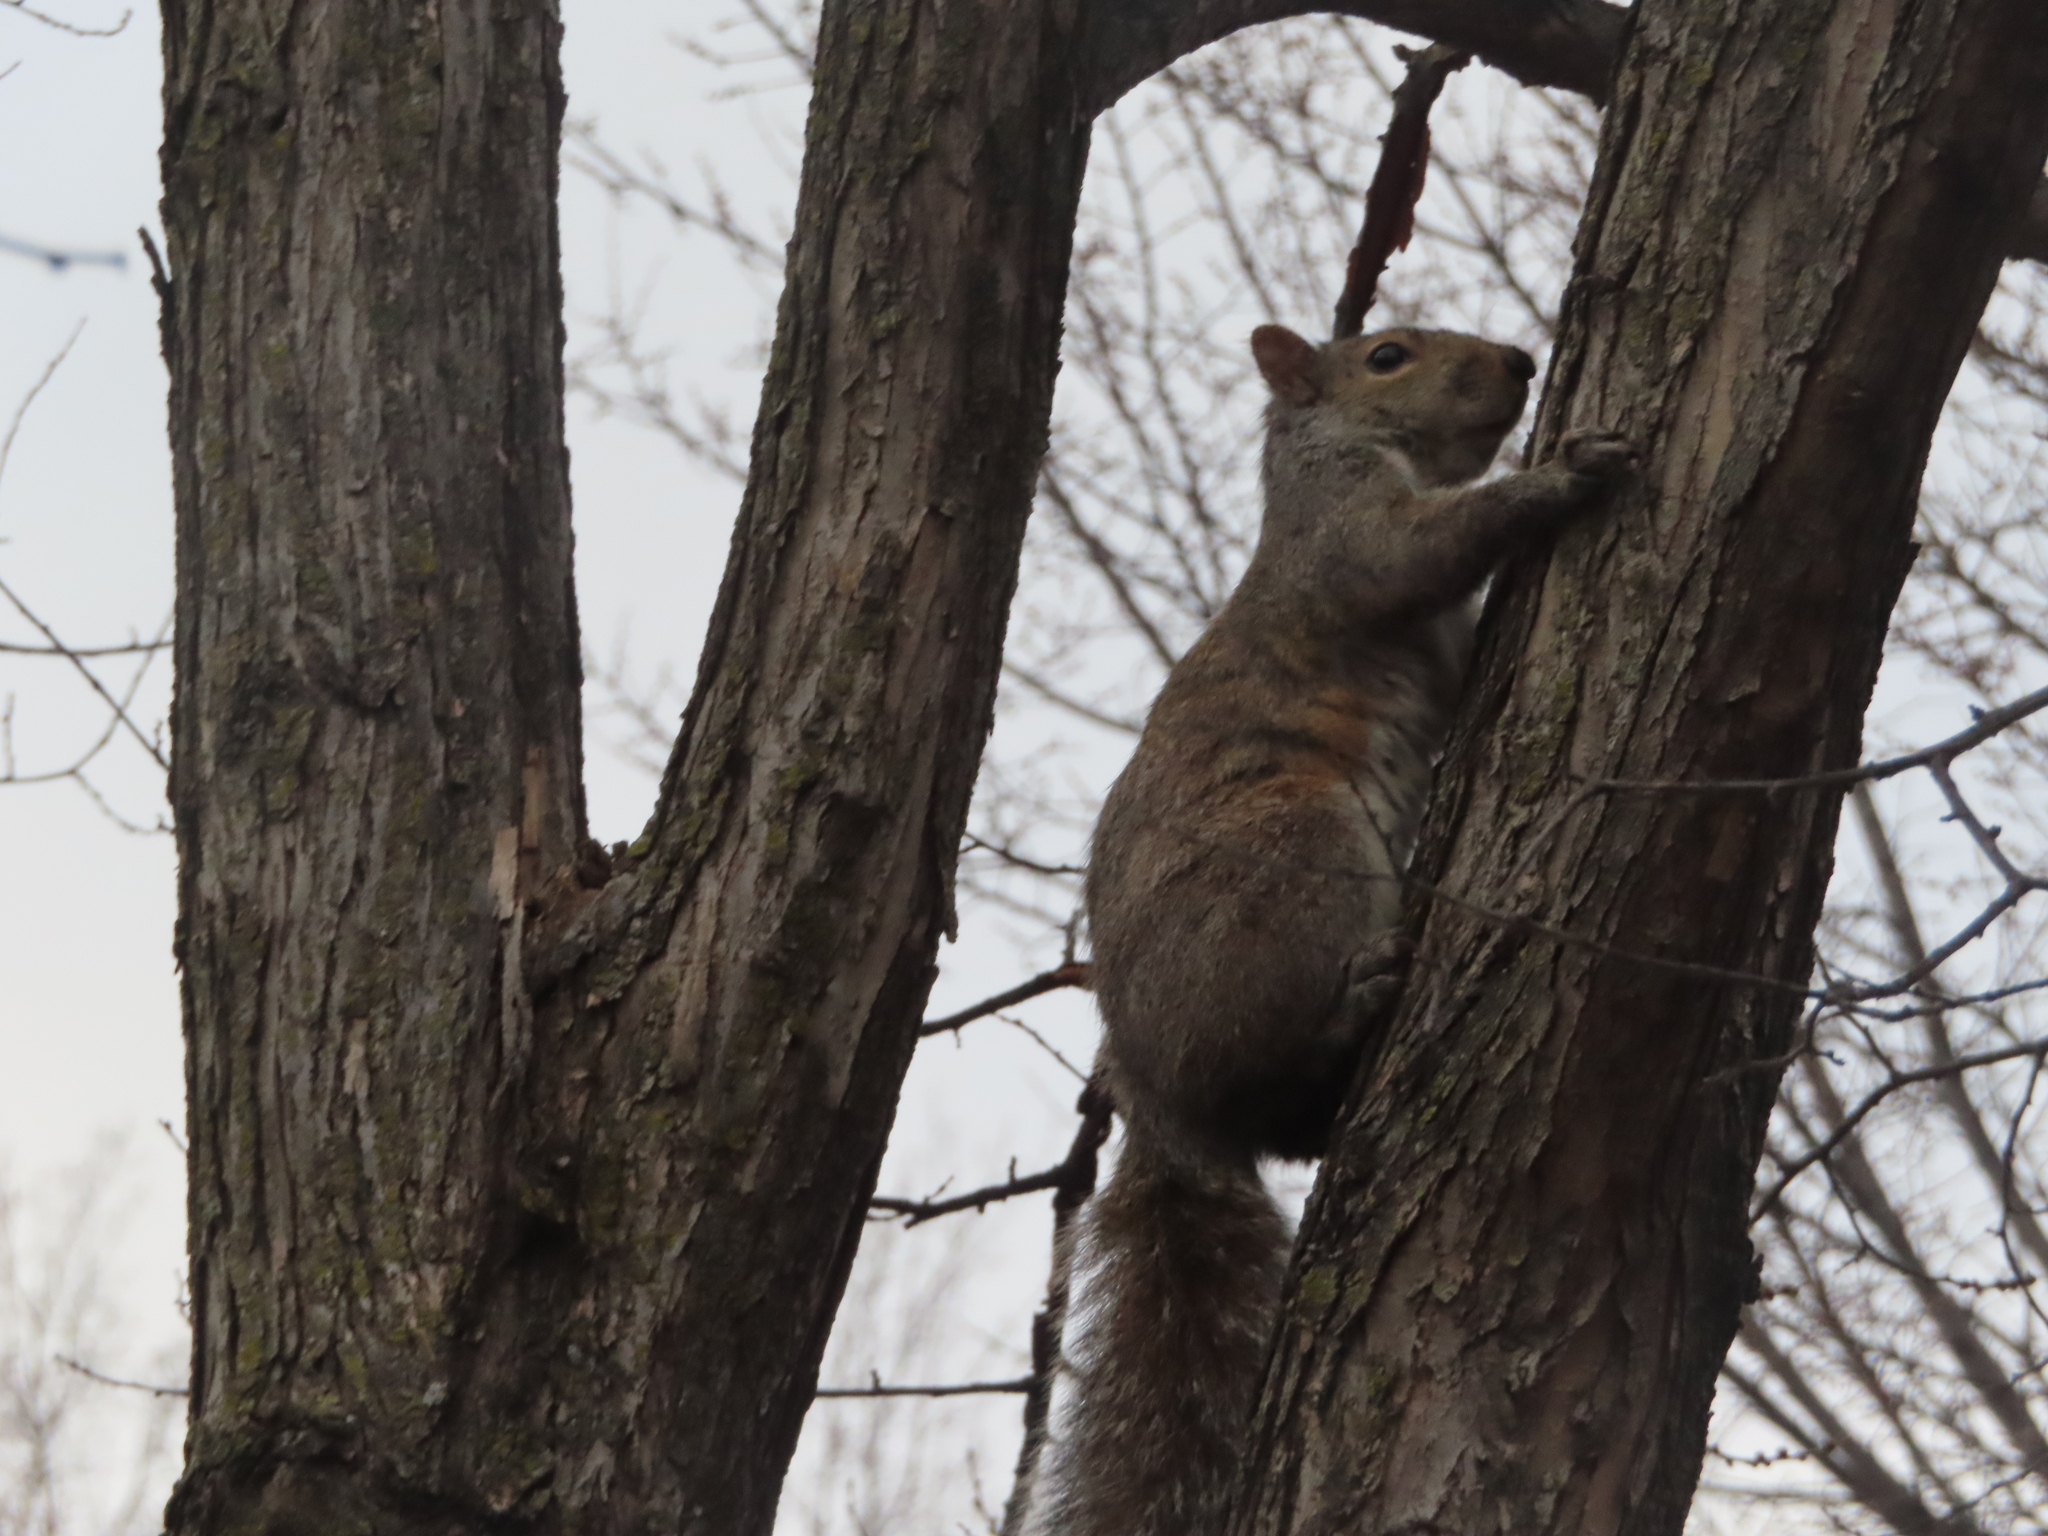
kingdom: Animalia
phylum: Chordata
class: Mammalia
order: Rodentia
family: Sciuridae
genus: Sciurus
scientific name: Sciurus carolinensis
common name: Eastern gray squirrel
